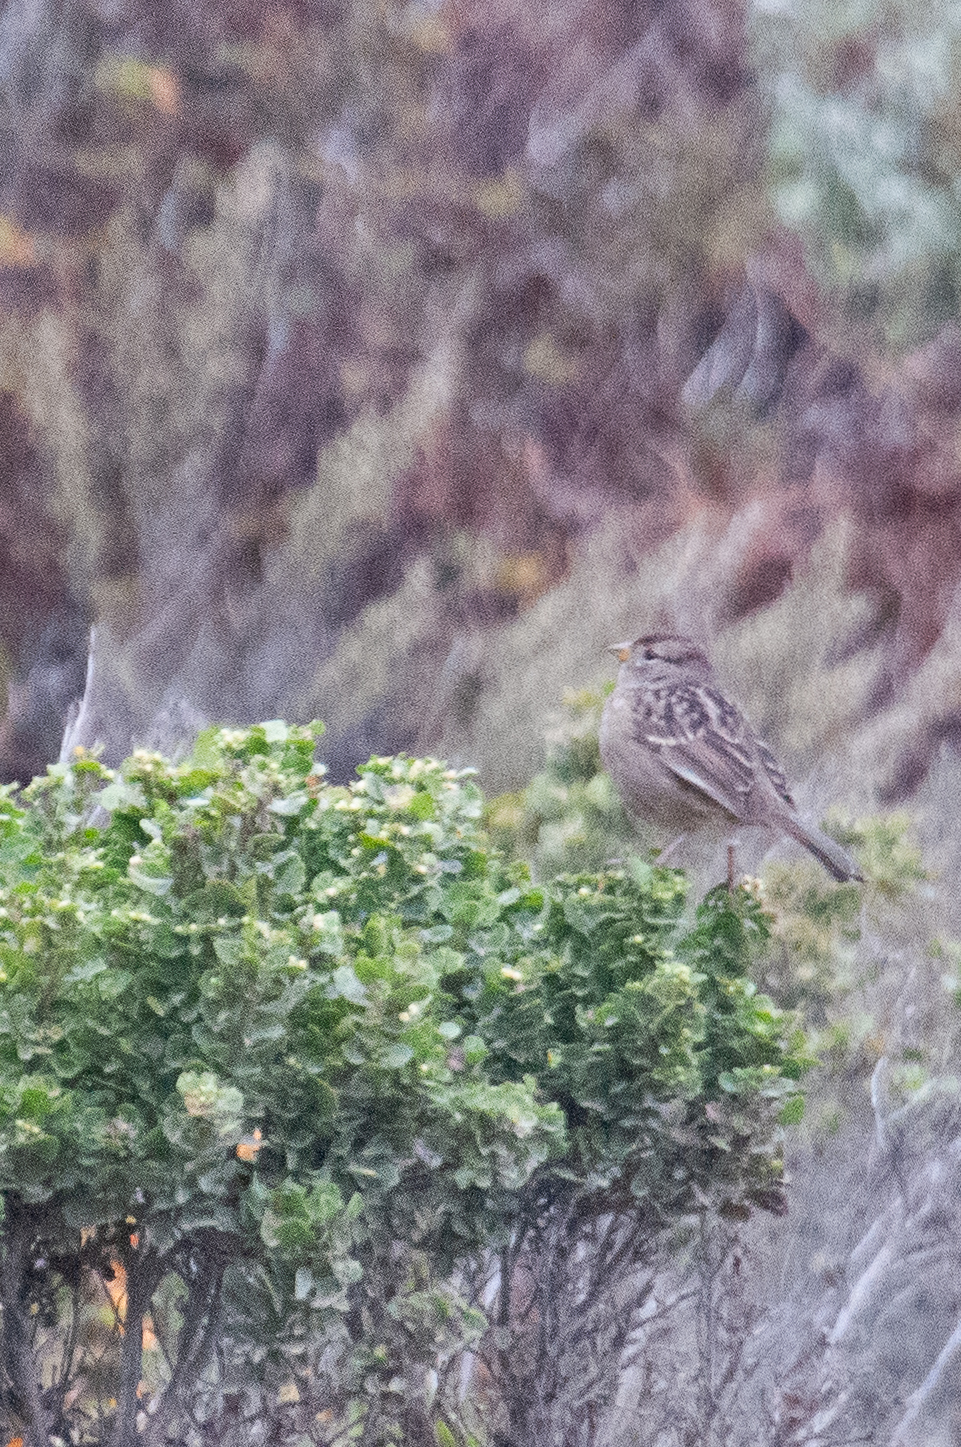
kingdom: Animalia
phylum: Chordata
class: Aves
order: Passeriformes
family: Passerellidae
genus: Zonotrichia
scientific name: Zonotrichia leucophrys
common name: White-crowned sparrow
